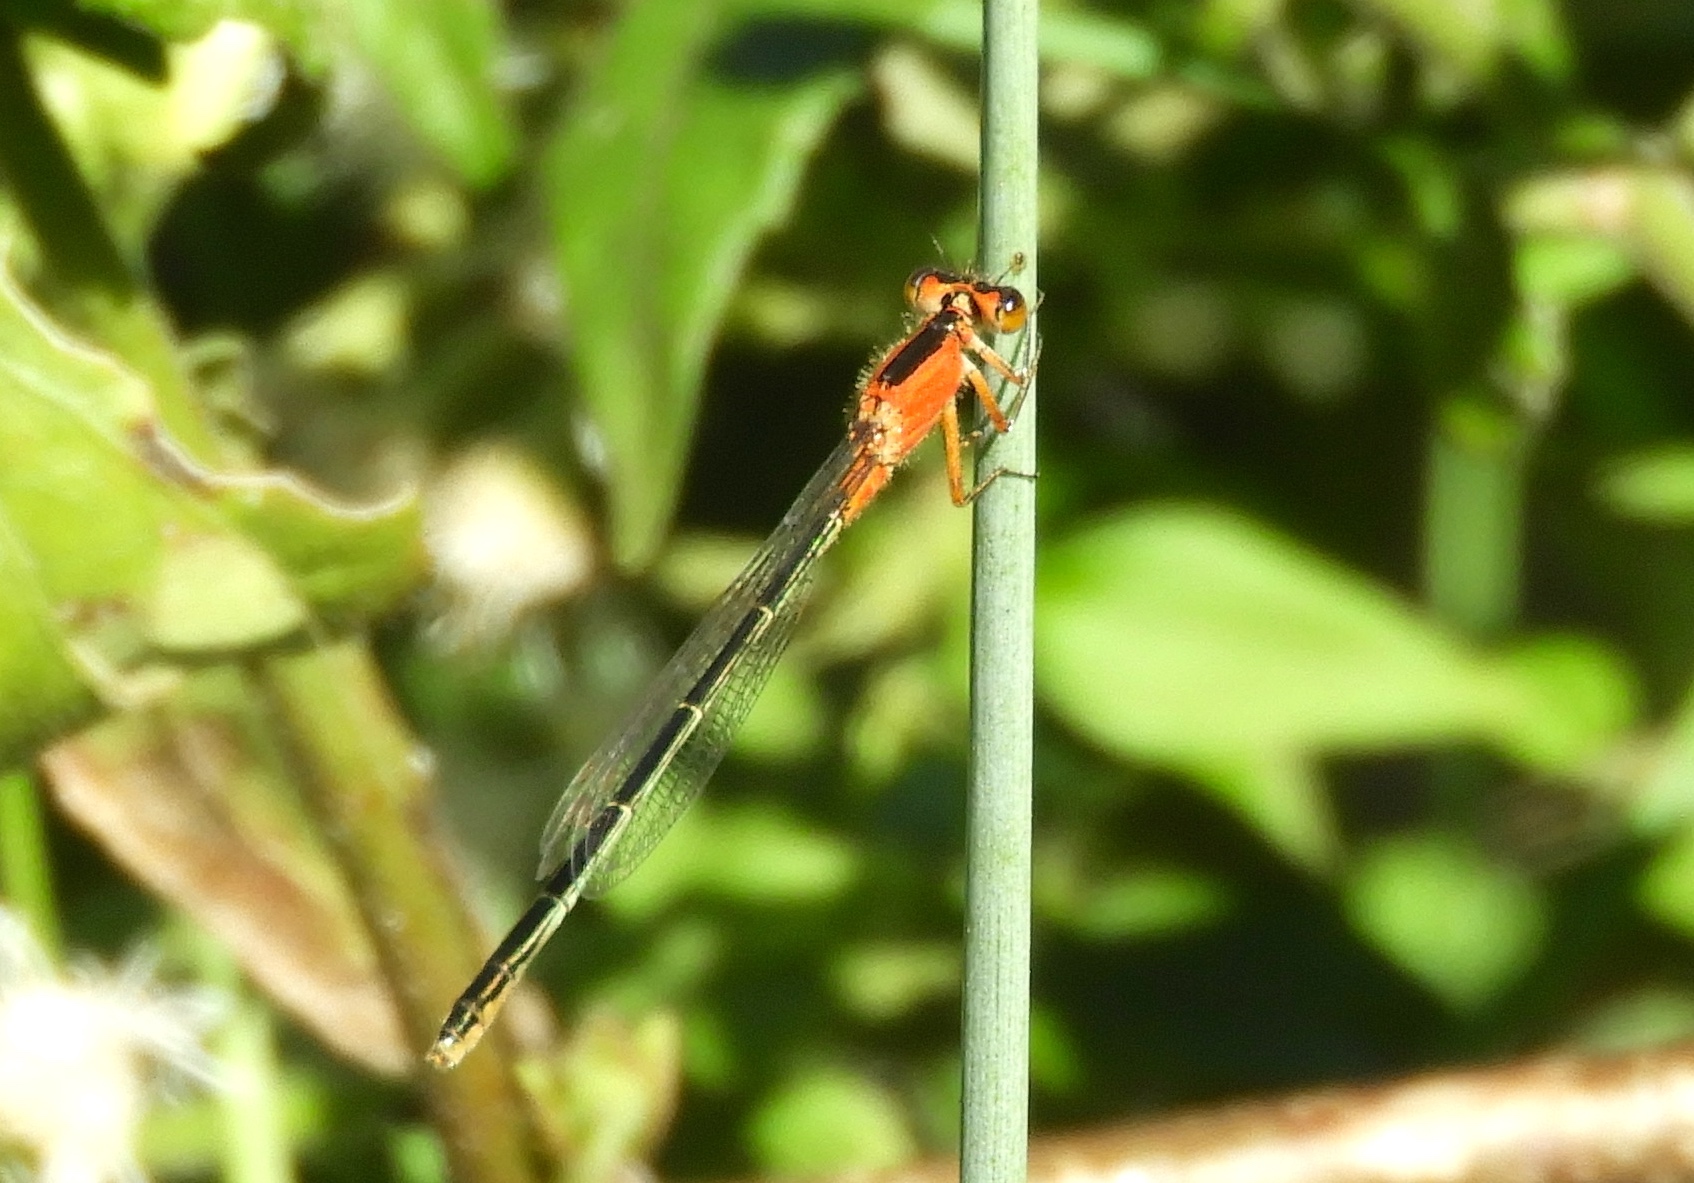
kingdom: Animalia
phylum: Arthropoda
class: Insecta
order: Odonata
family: Coenagrionidae
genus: Ischnura
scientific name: Ischnura ramburii
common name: Rambur's forktail
